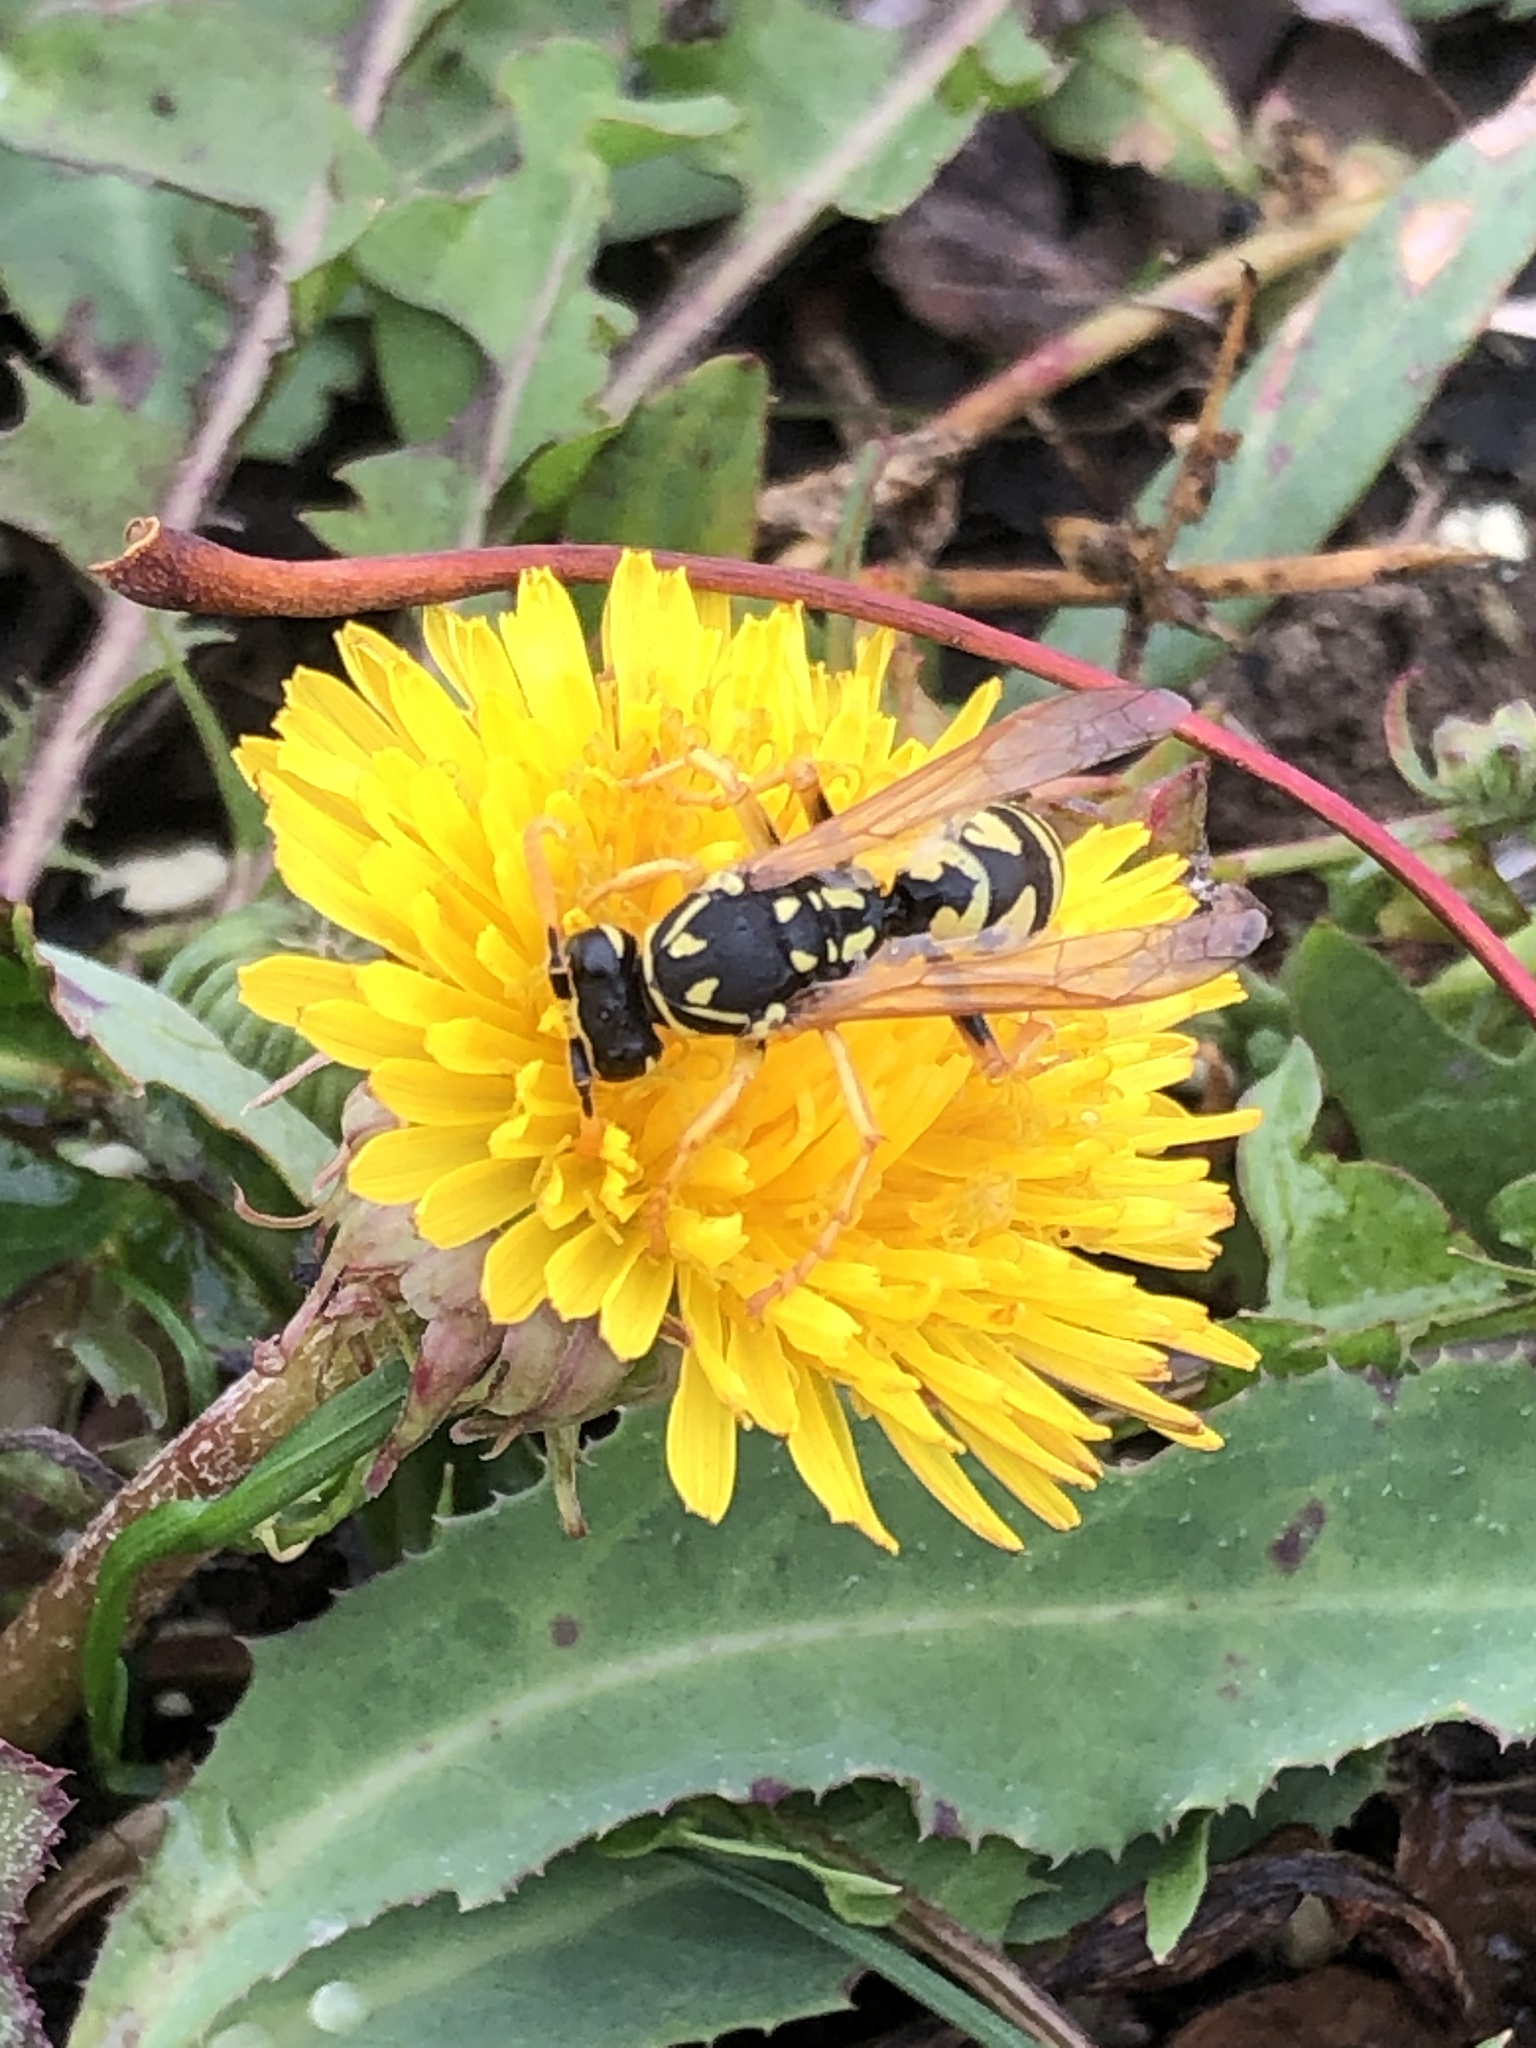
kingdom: Animalia
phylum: Arthropoda
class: Insecta
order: Hymenoptera
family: Eumenidae
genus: Polistes
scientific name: Polistes dominula
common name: Paper wasp
